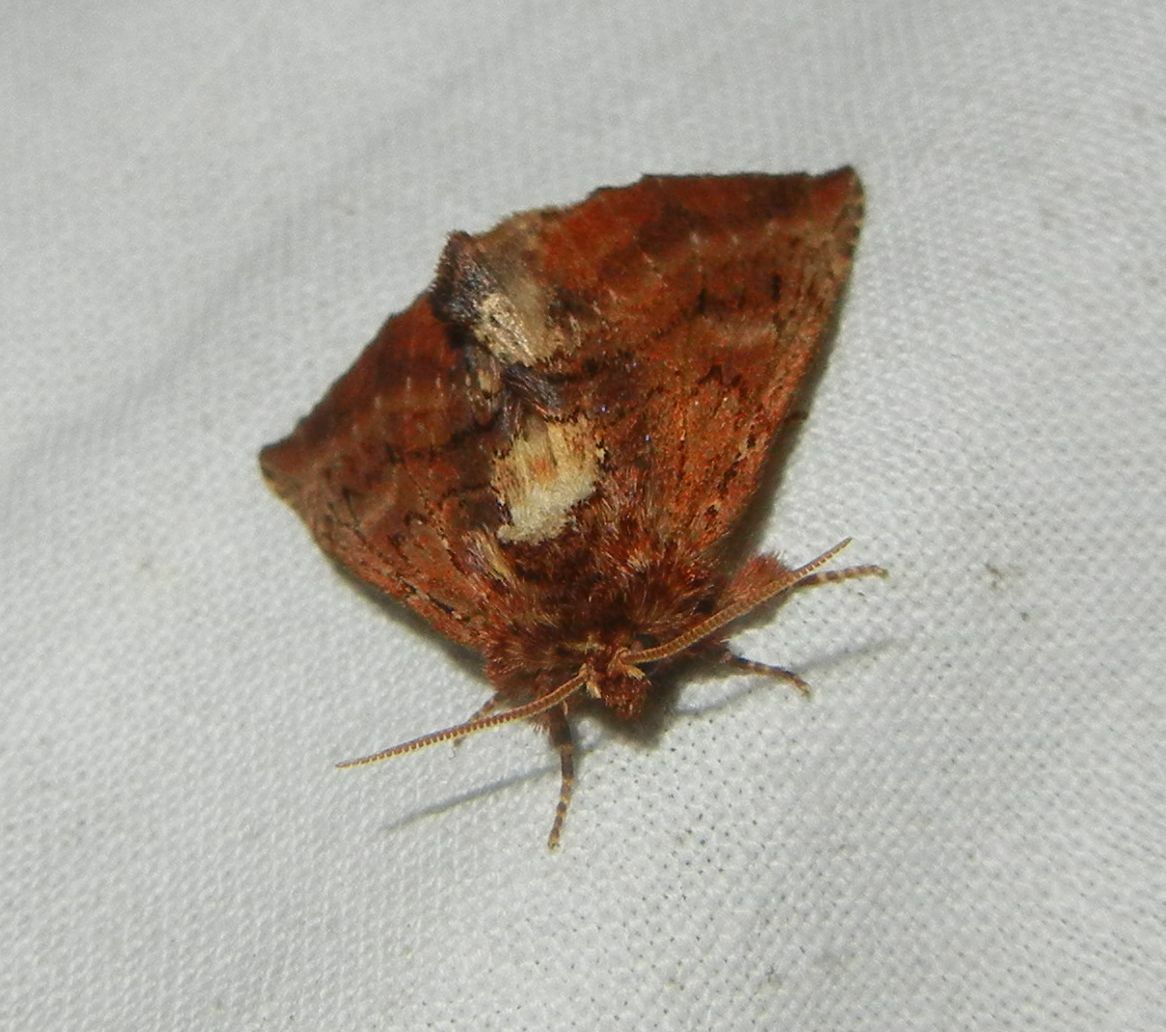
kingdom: Animalia
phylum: Arthropoda
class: Insecta
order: Lepidoptera
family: Notodontidae
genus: Ptilodon
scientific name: Ptilodon capucina
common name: Coxcomb prominent
